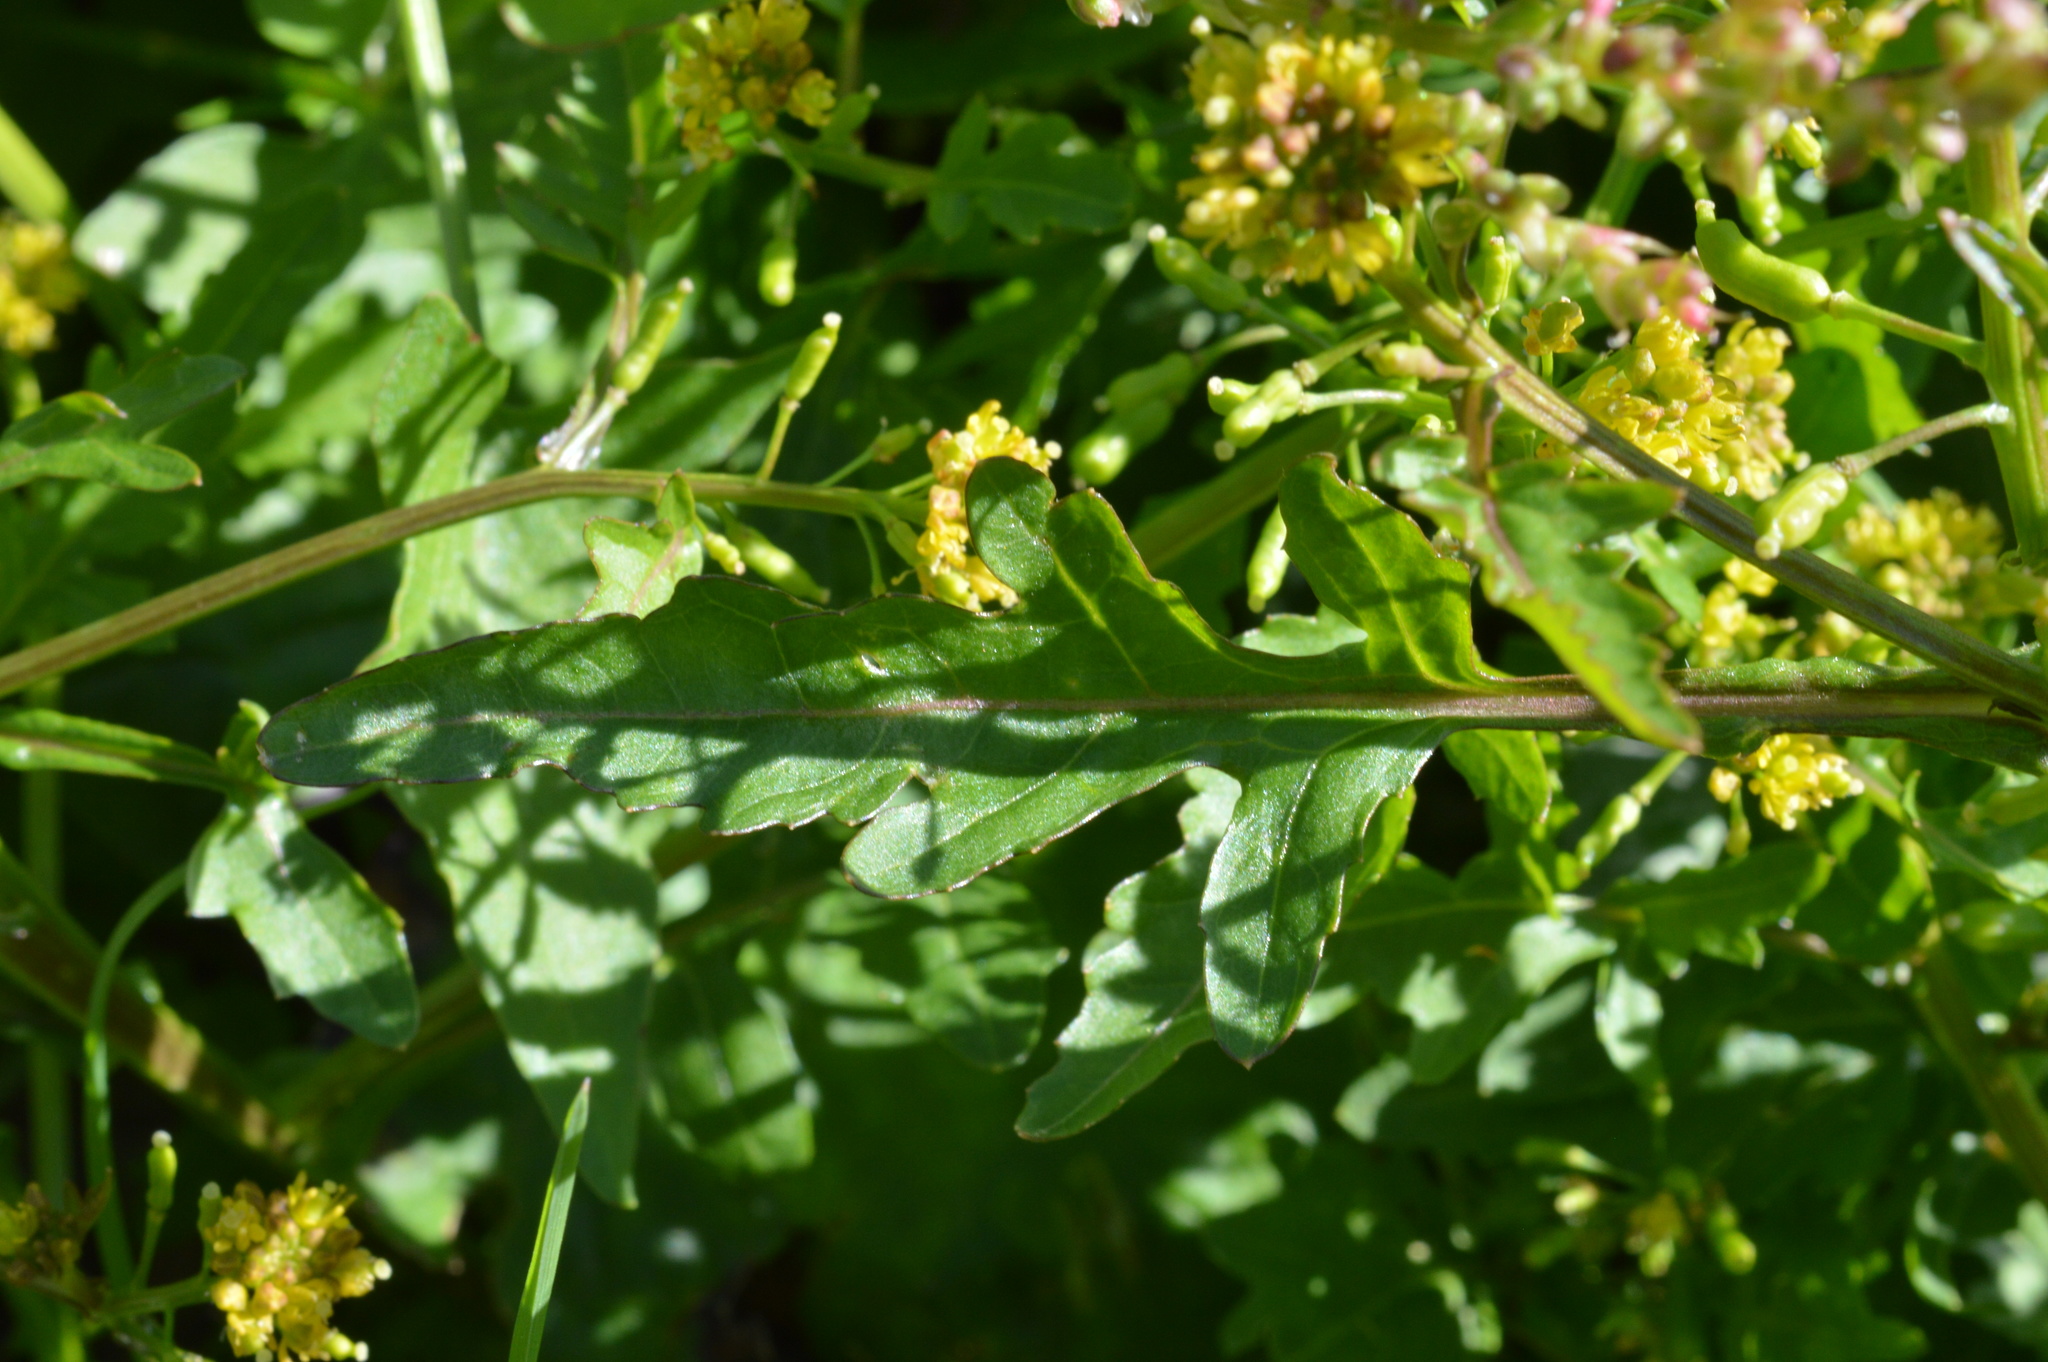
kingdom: Plantae
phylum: Tracheophyta
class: Magnoliopsida
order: Brassicales
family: Brassicaceae
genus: Rorippa
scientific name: Rorippa palustris
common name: Marsh yellow-cress
